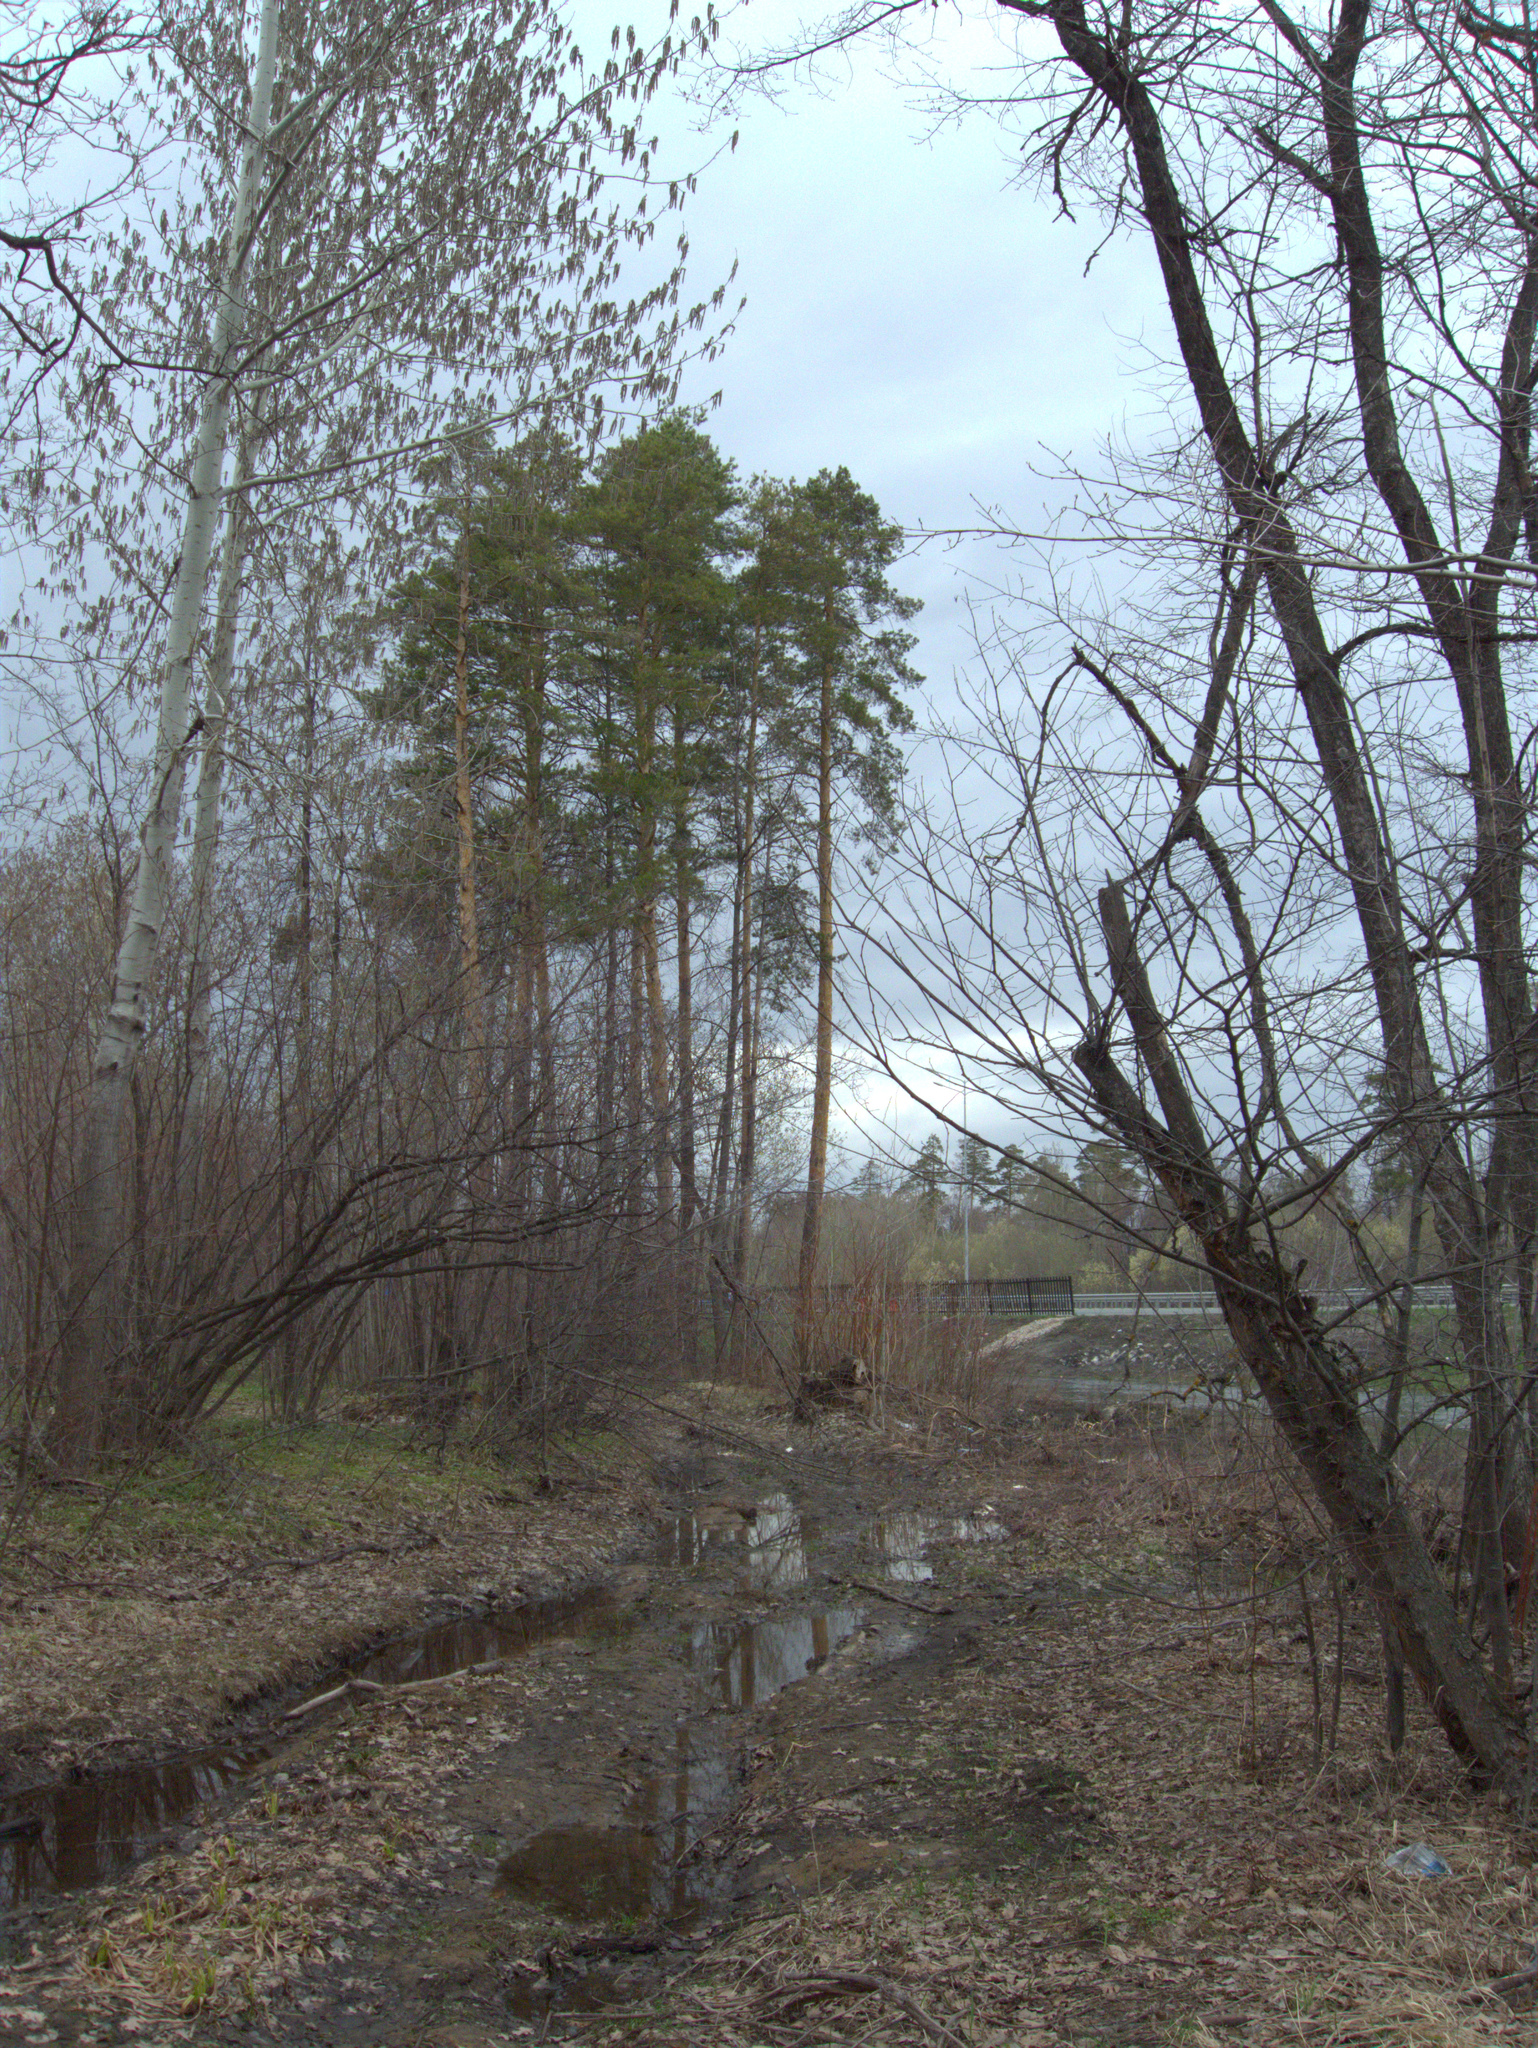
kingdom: Plantae
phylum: Tracheophyta
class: Pinopsida
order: Pinales
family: Pinaceae
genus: Pinus
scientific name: Pinus sylvestris
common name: Scots pine
